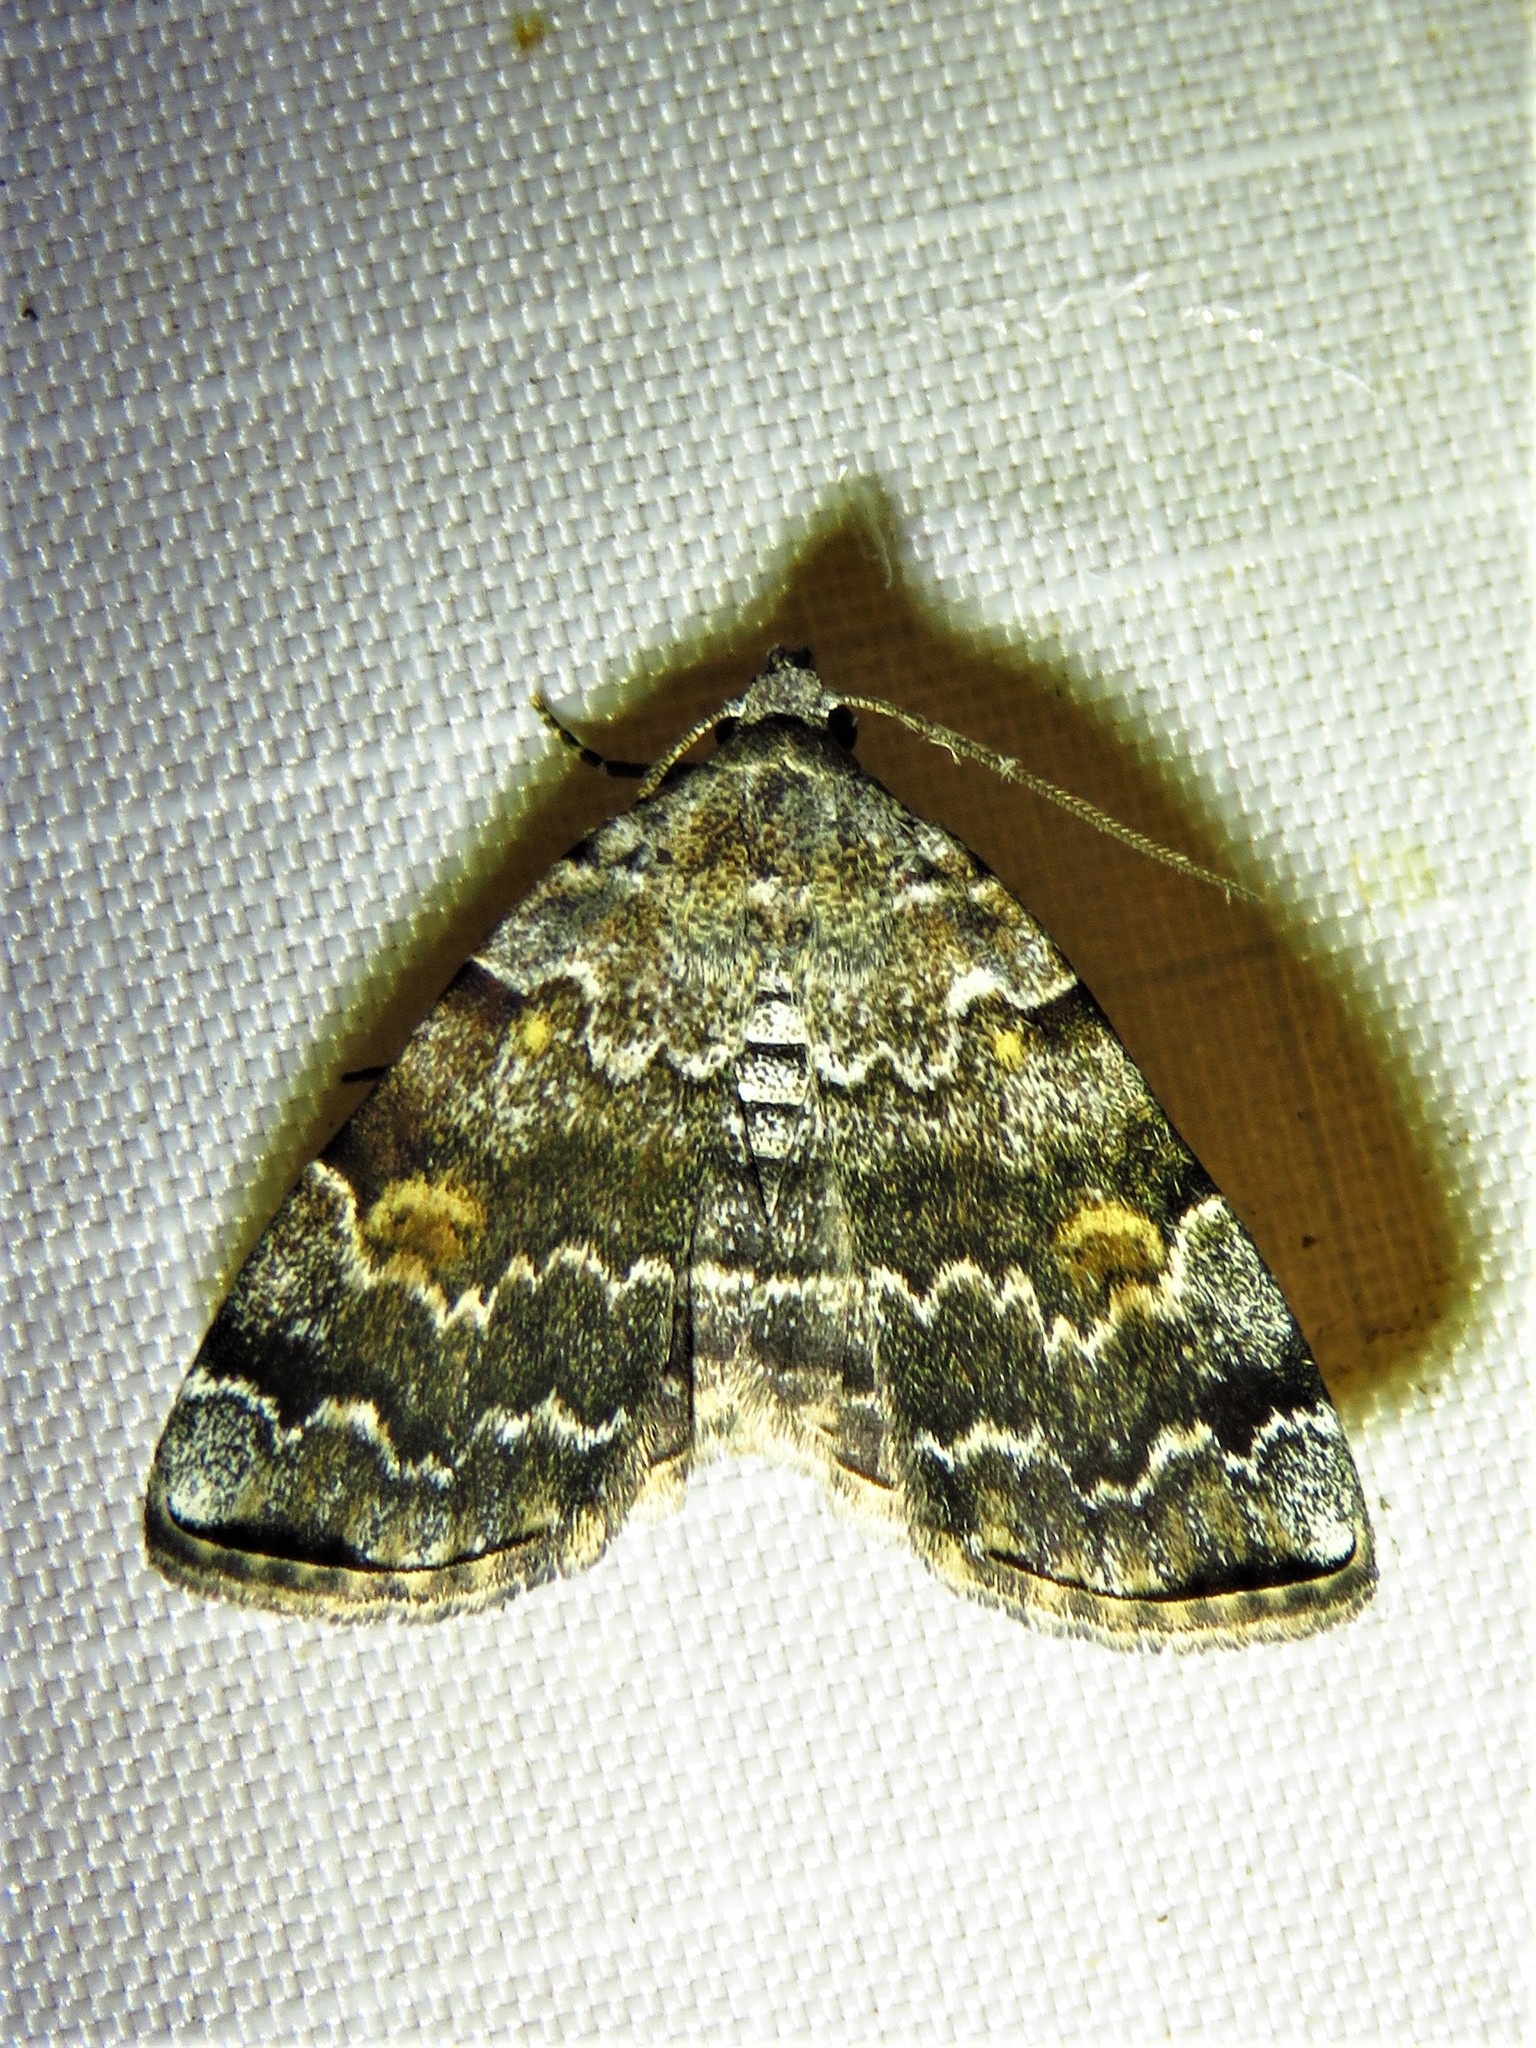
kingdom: Animalia
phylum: Arthropoda
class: Insecta
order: Lepidoptera
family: Erebidae
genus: Idia
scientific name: Idia americalis
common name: American idia moth
